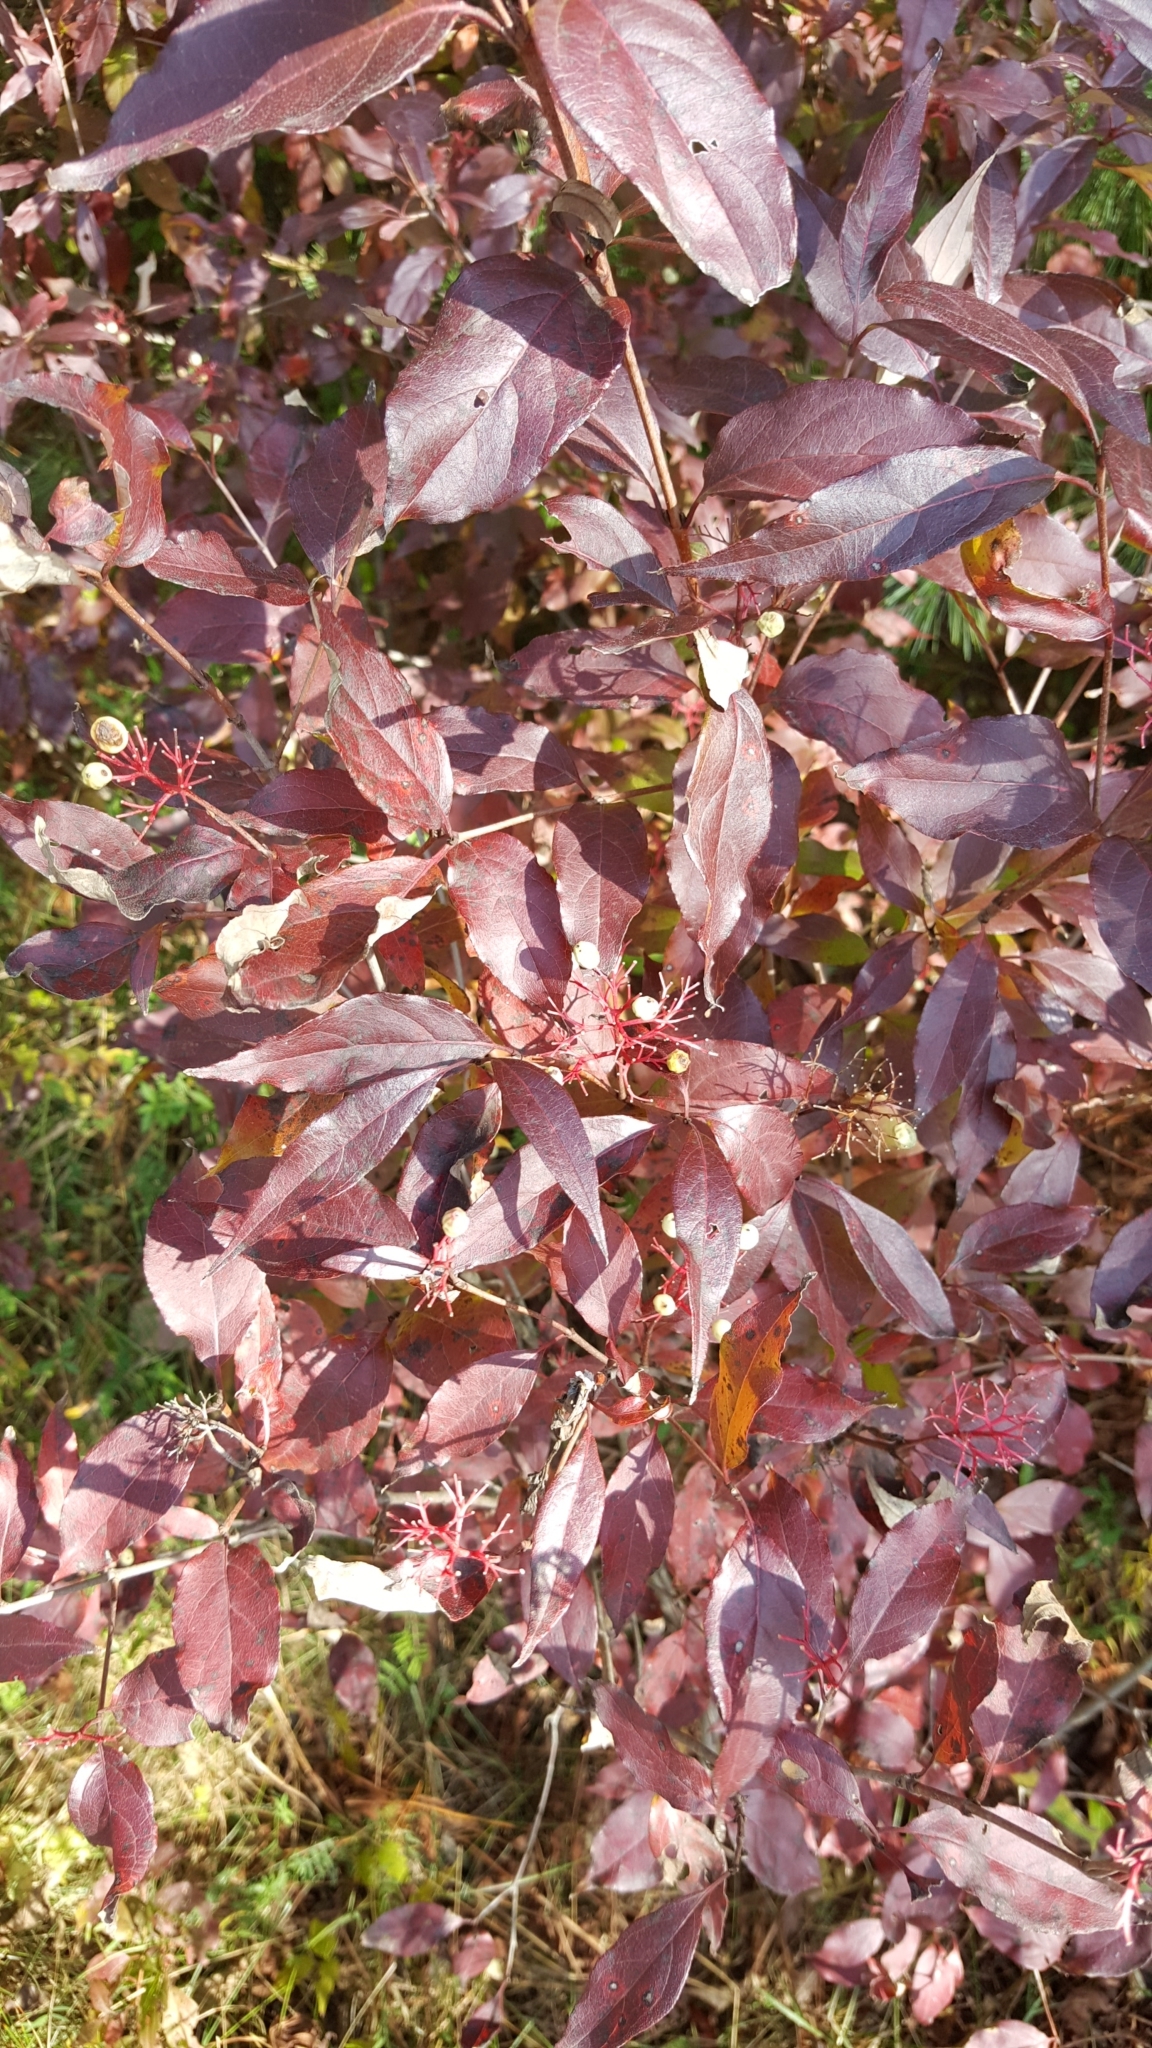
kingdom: Plantae
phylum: Tracheophyta
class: Magnoliopsida
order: Cornales
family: Cornaceae
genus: Cornus
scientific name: Cornus racemosa
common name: Panicled dogwood
